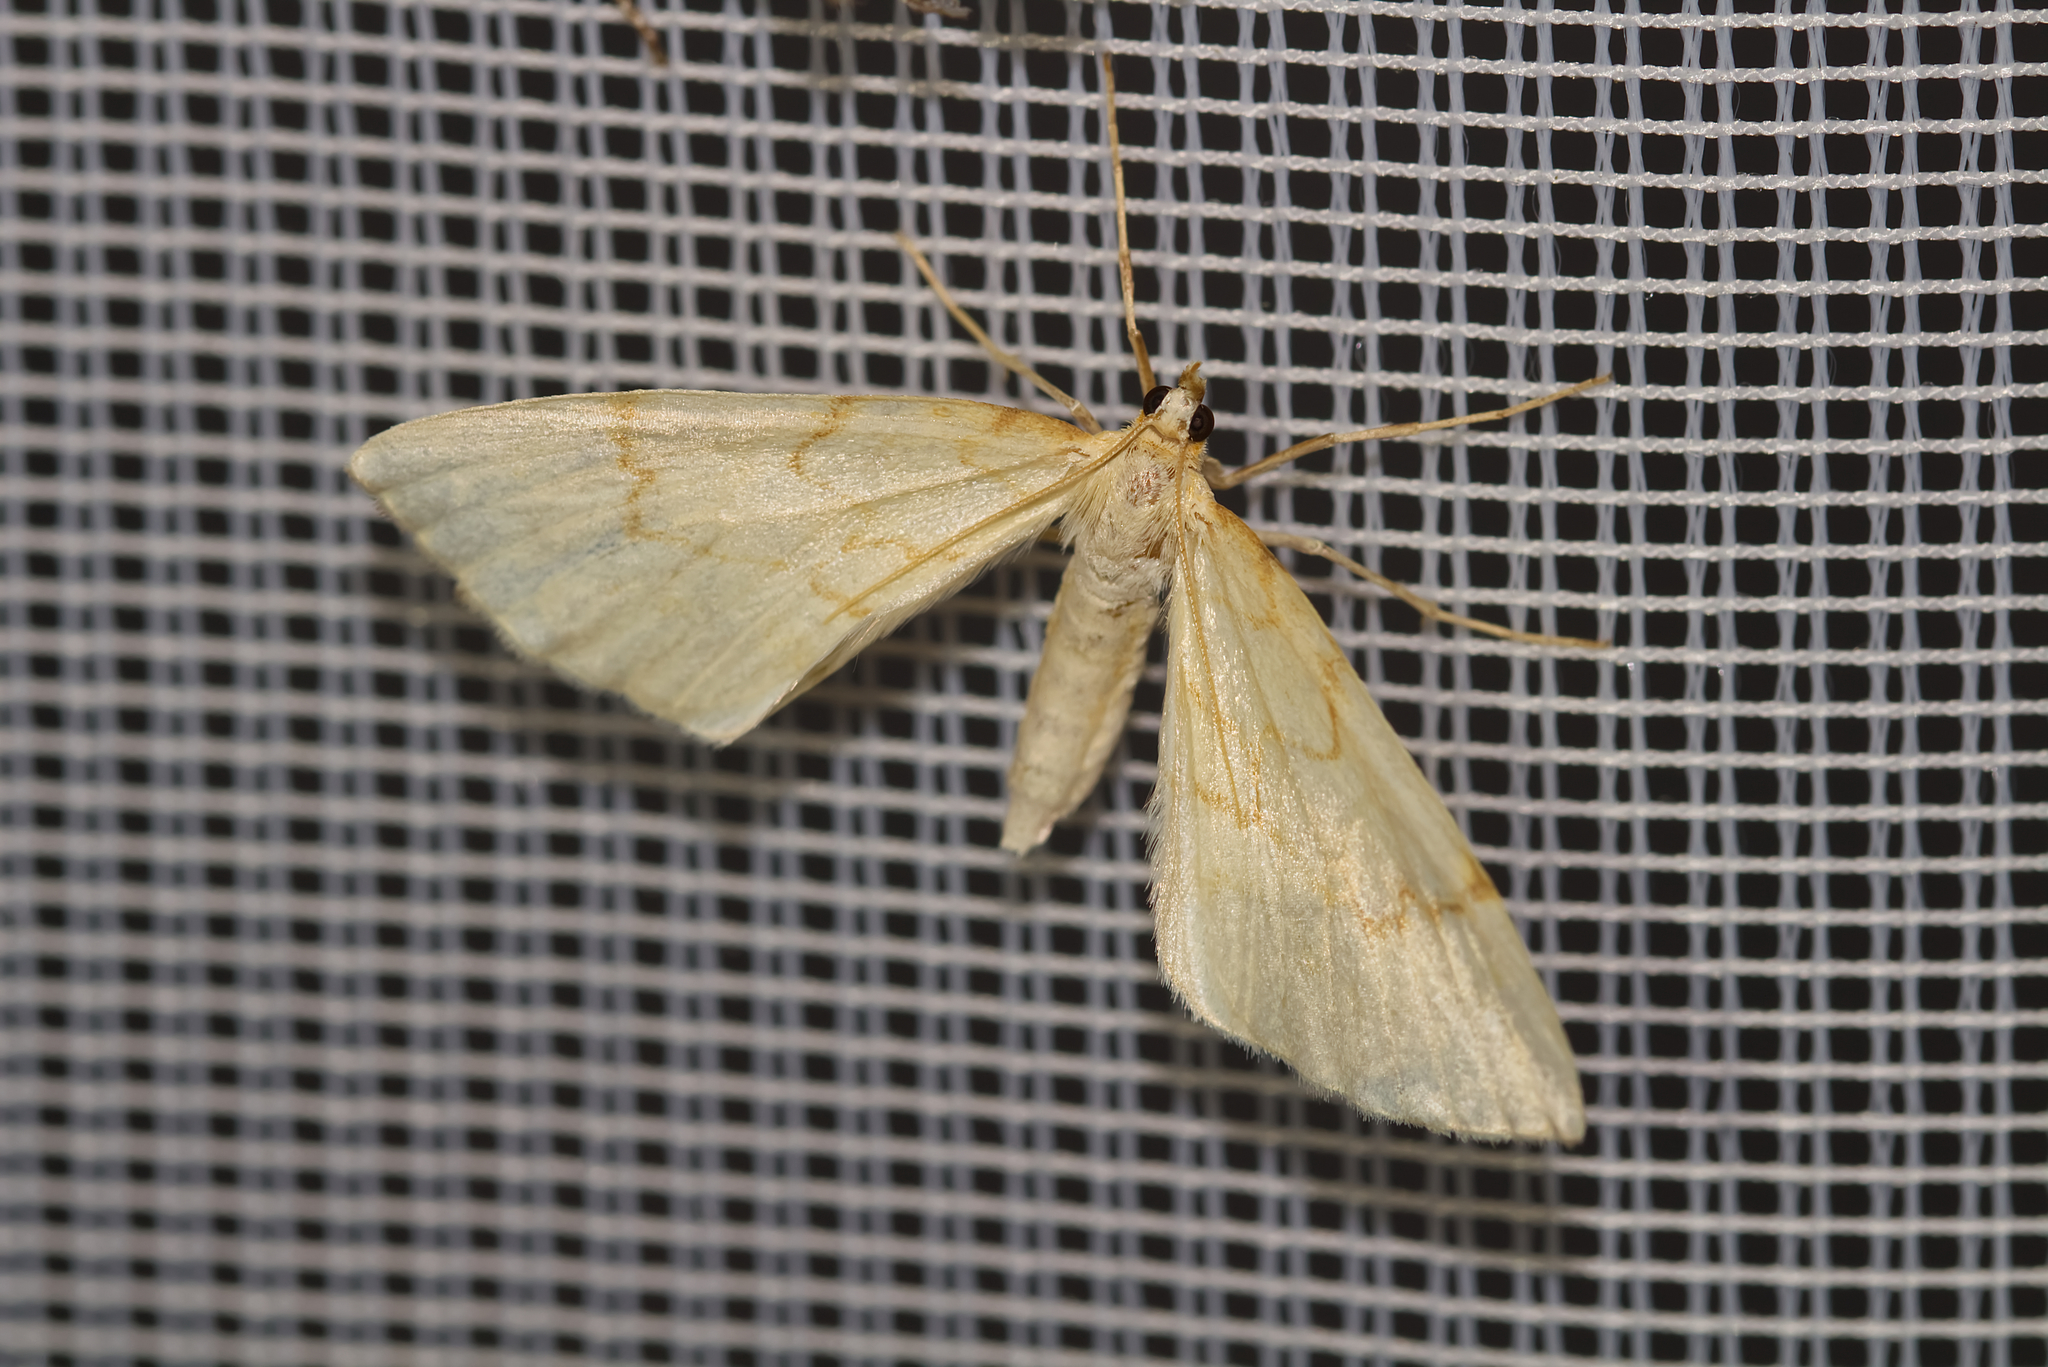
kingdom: Animalia
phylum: Arthropoda
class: Insecta
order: Lepidoptera
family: Geometridae
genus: Eulithis
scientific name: Eulithis pyraliata
